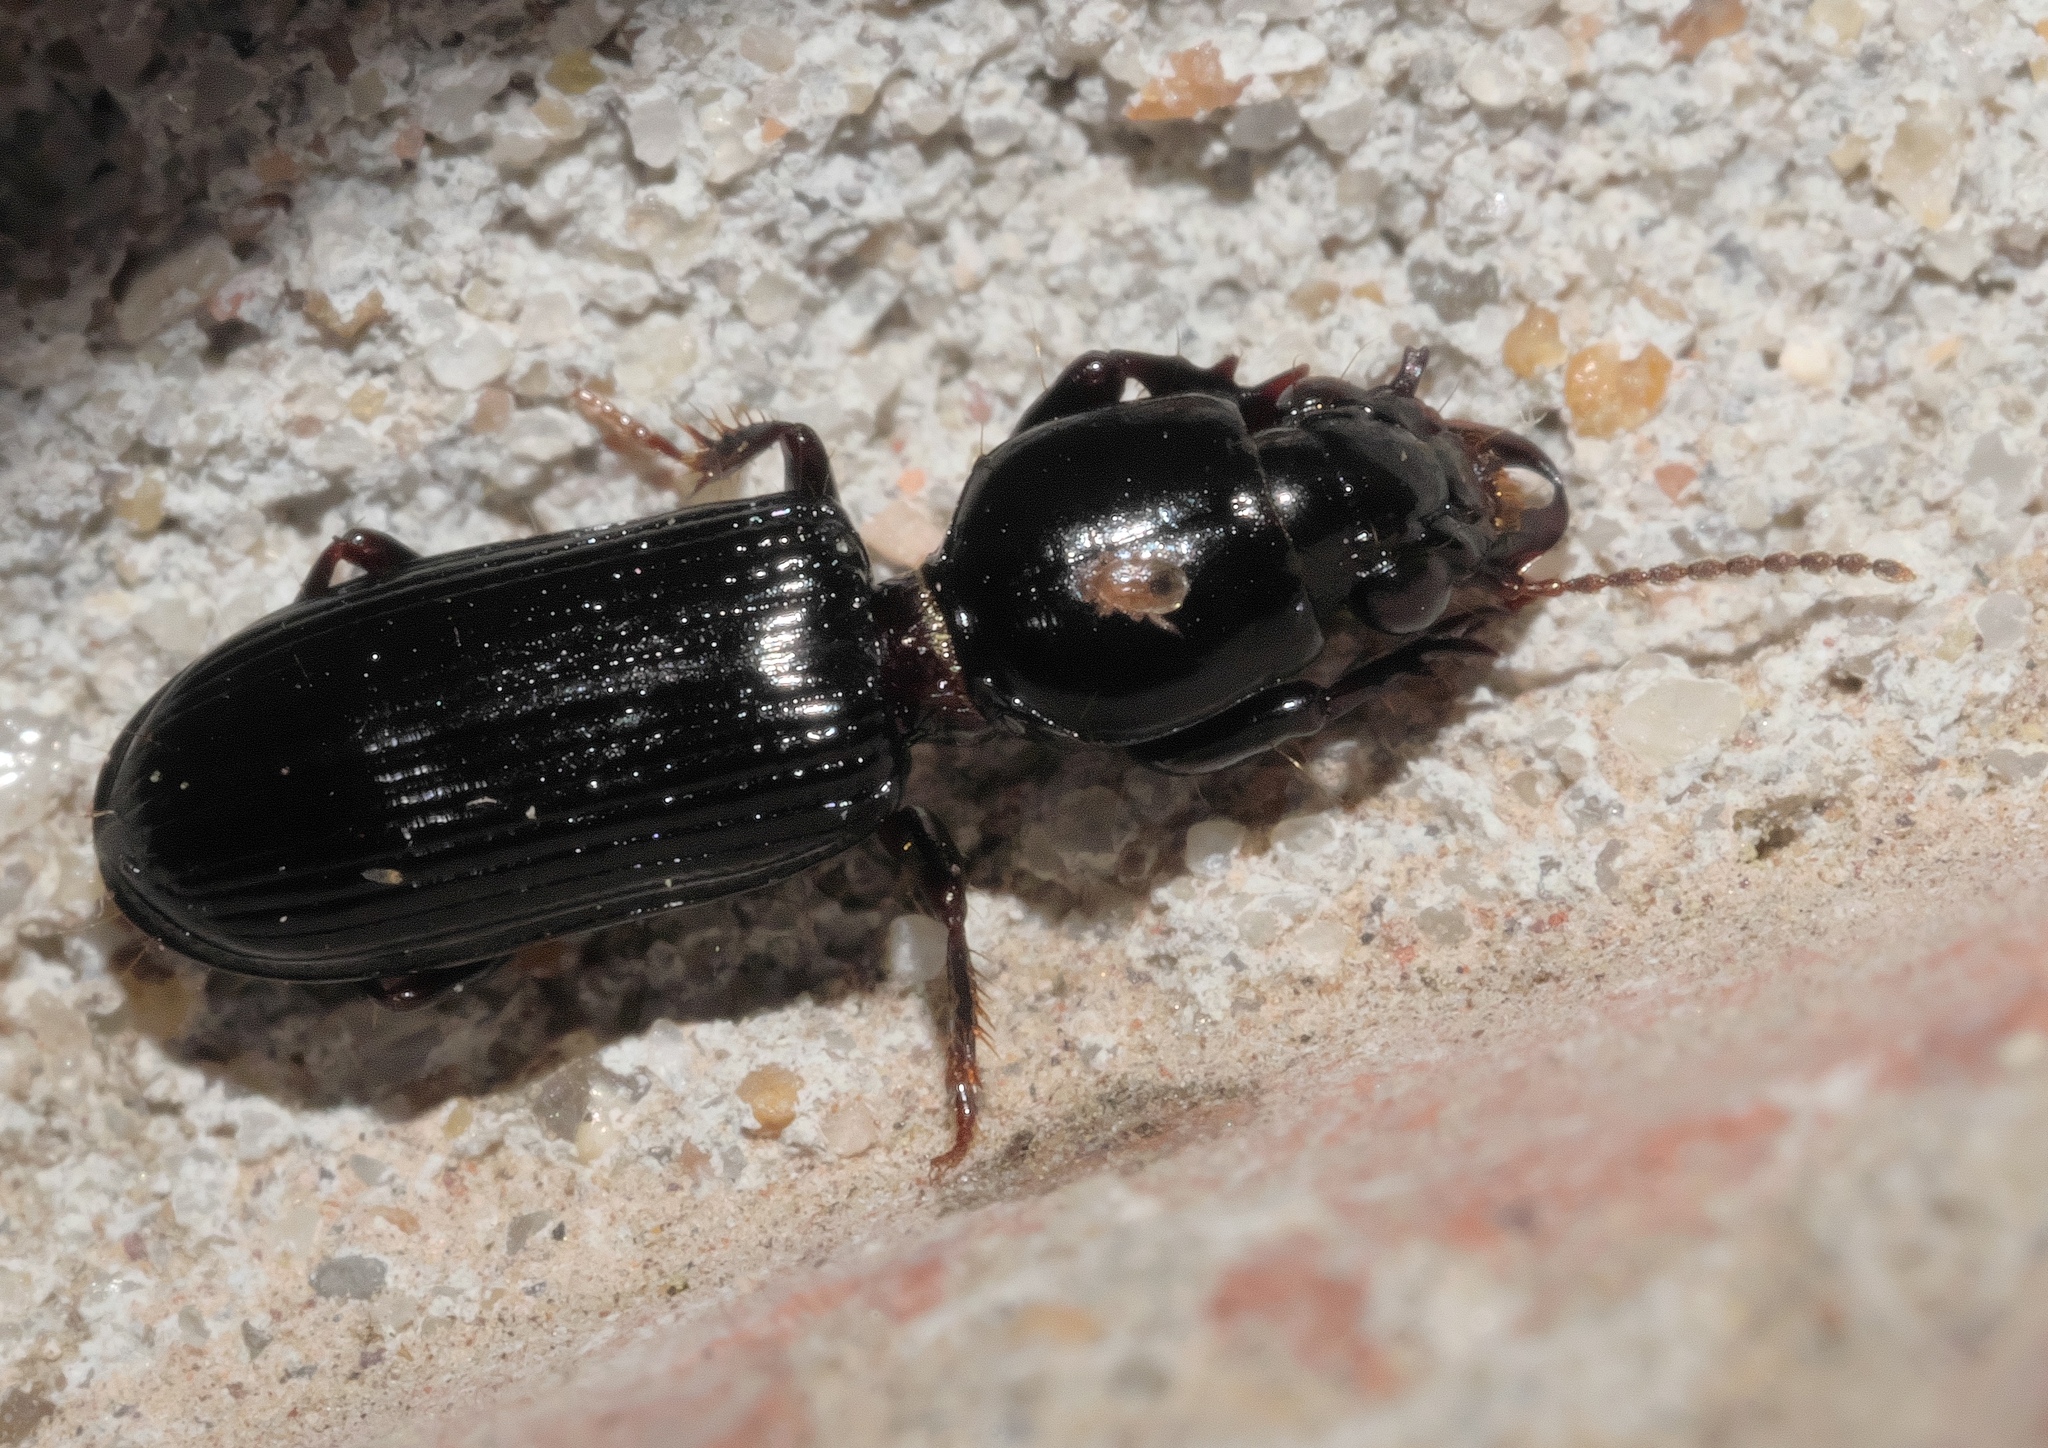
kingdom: Animalia
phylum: Arthropoda
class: Insecta
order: Coleoptera
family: Carabidae
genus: Semiclivina
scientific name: Semiclivina dentipes
